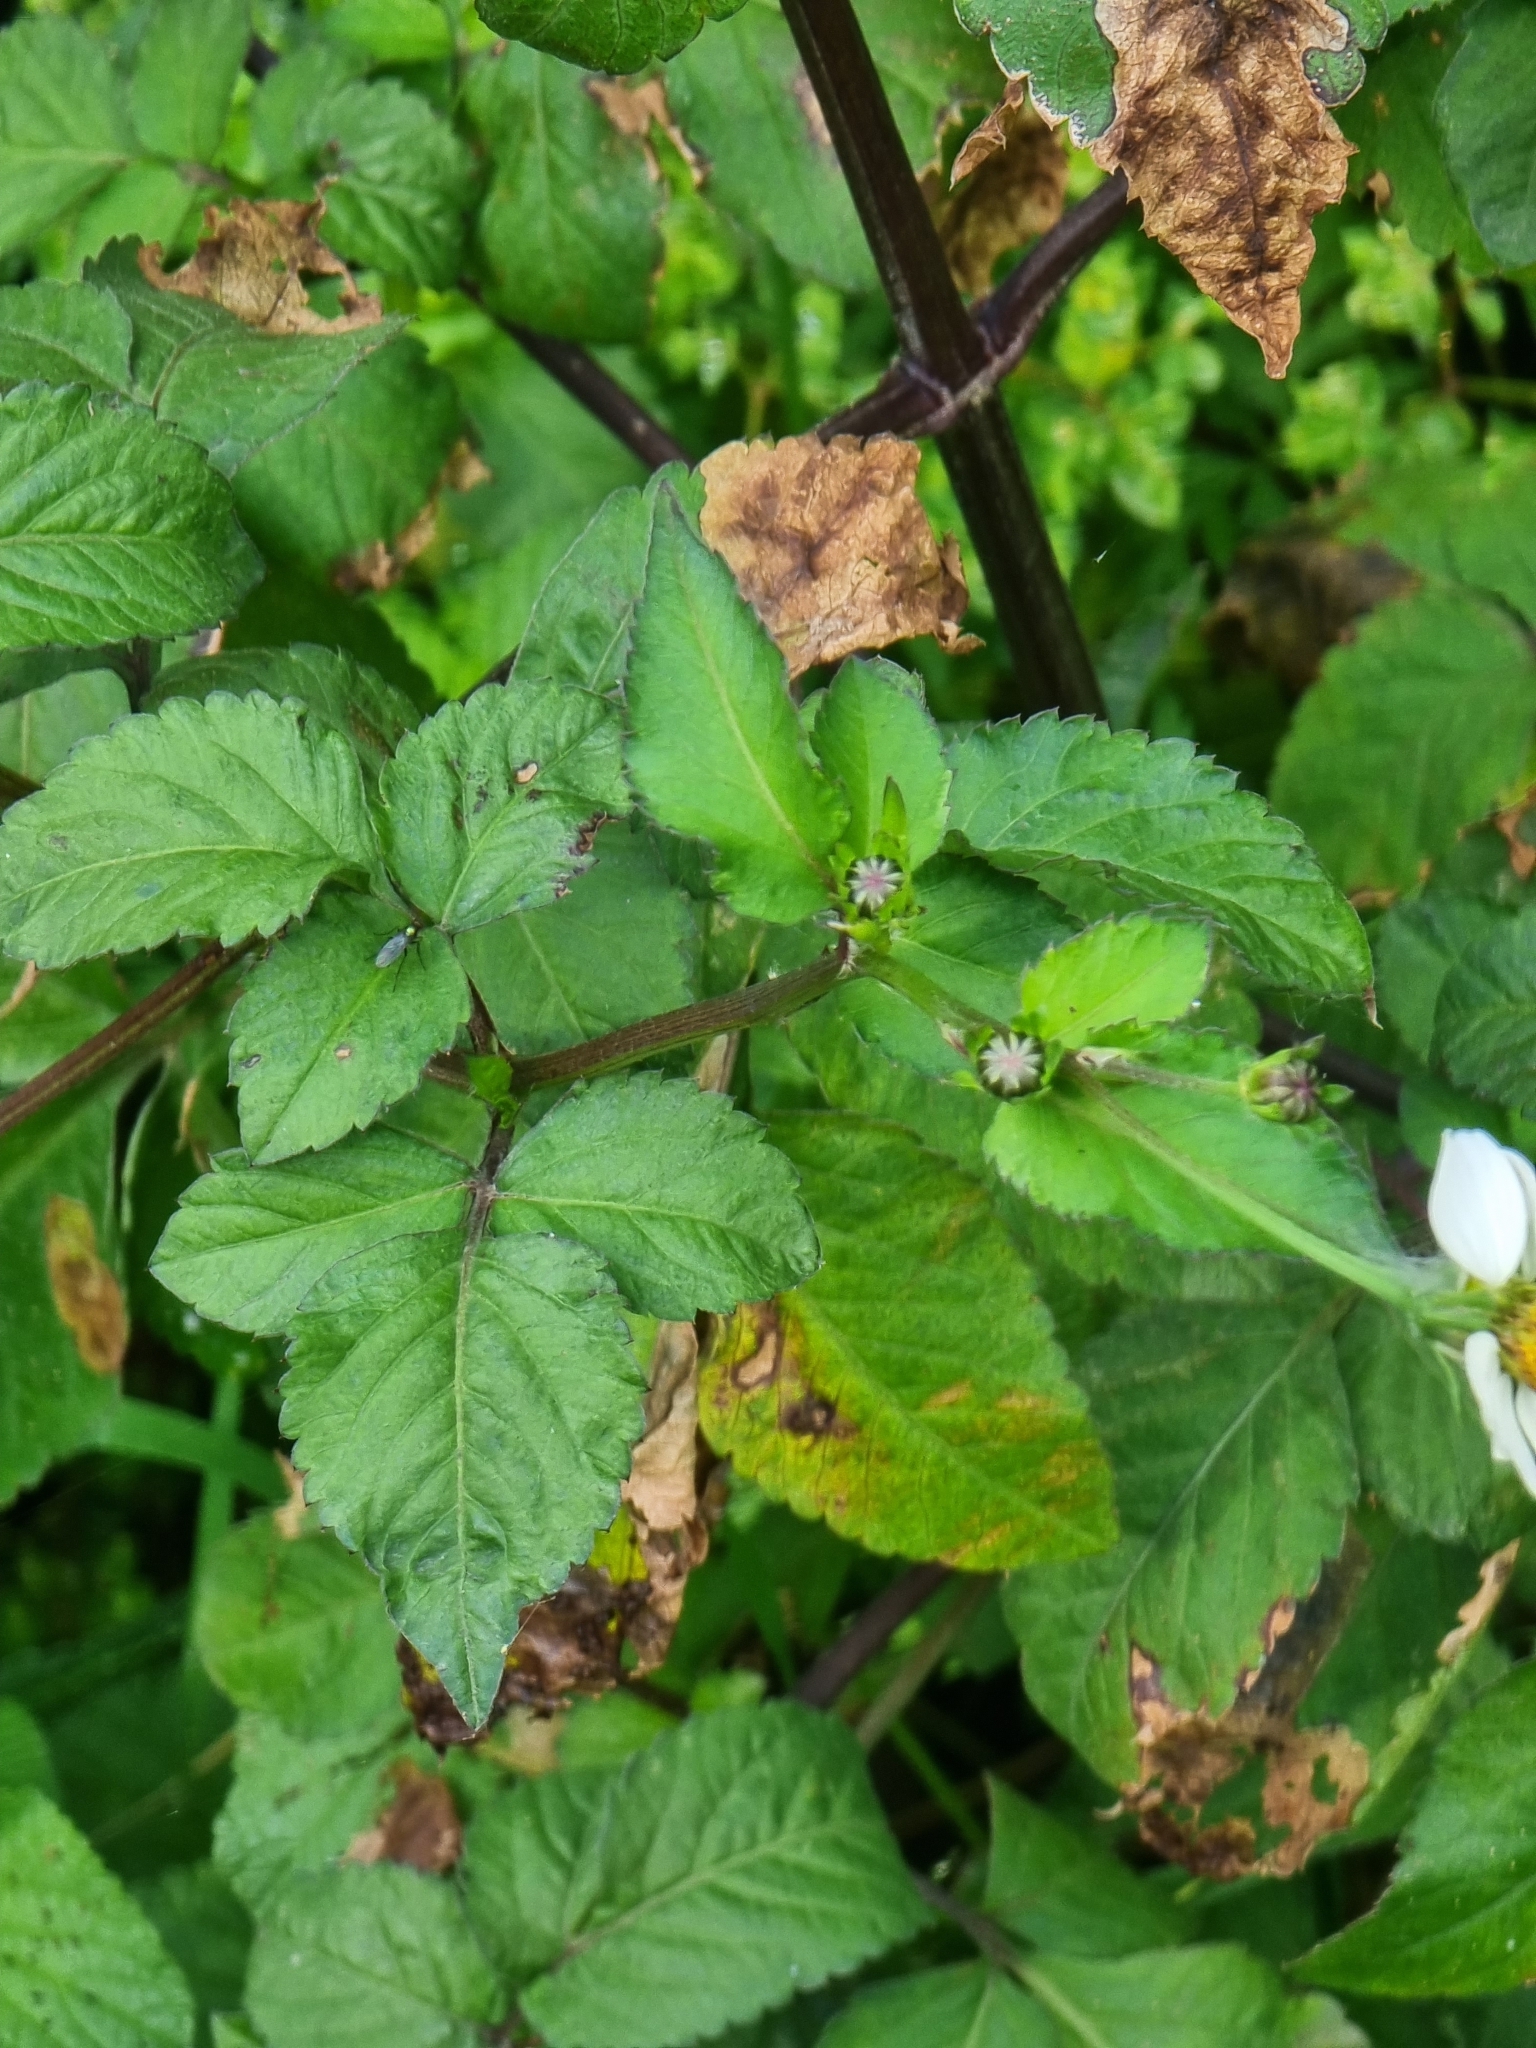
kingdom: Plantae
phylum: Tracheophyta
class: Magnoliopsida
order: Asterales
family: Asteraceae
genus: Bidens
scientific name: Bidens pilosa
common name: Black-jack
